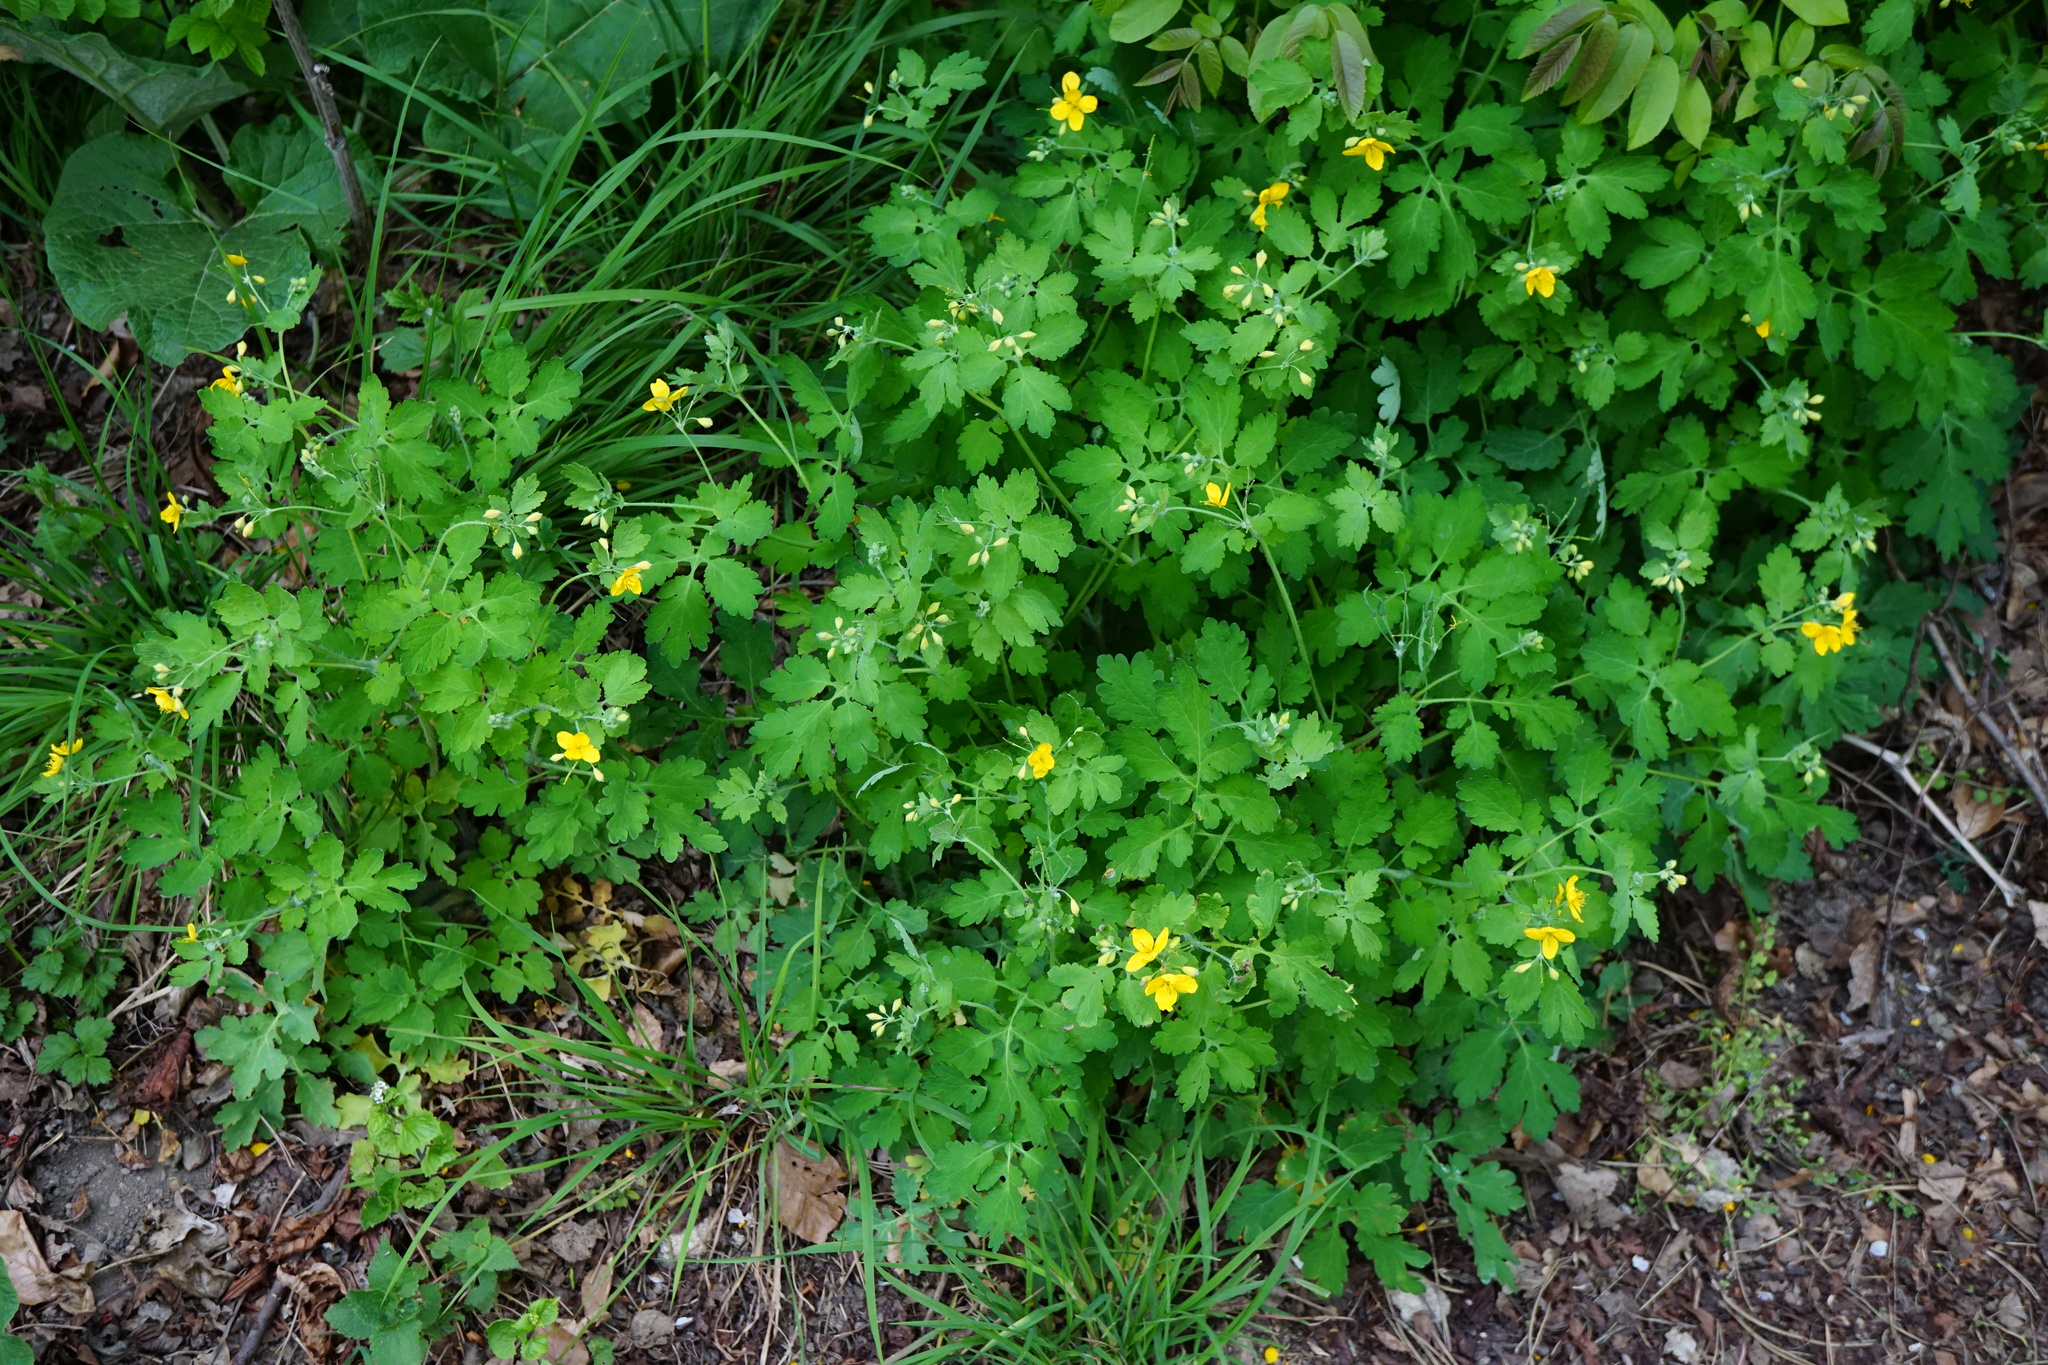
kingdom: Plantae
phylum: Tracheophyta
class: Magnoliopsida
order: Ranunculales
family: Papaveraceae
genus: Chelidonium
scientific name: Chelidonium majus
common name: Greater celandine
